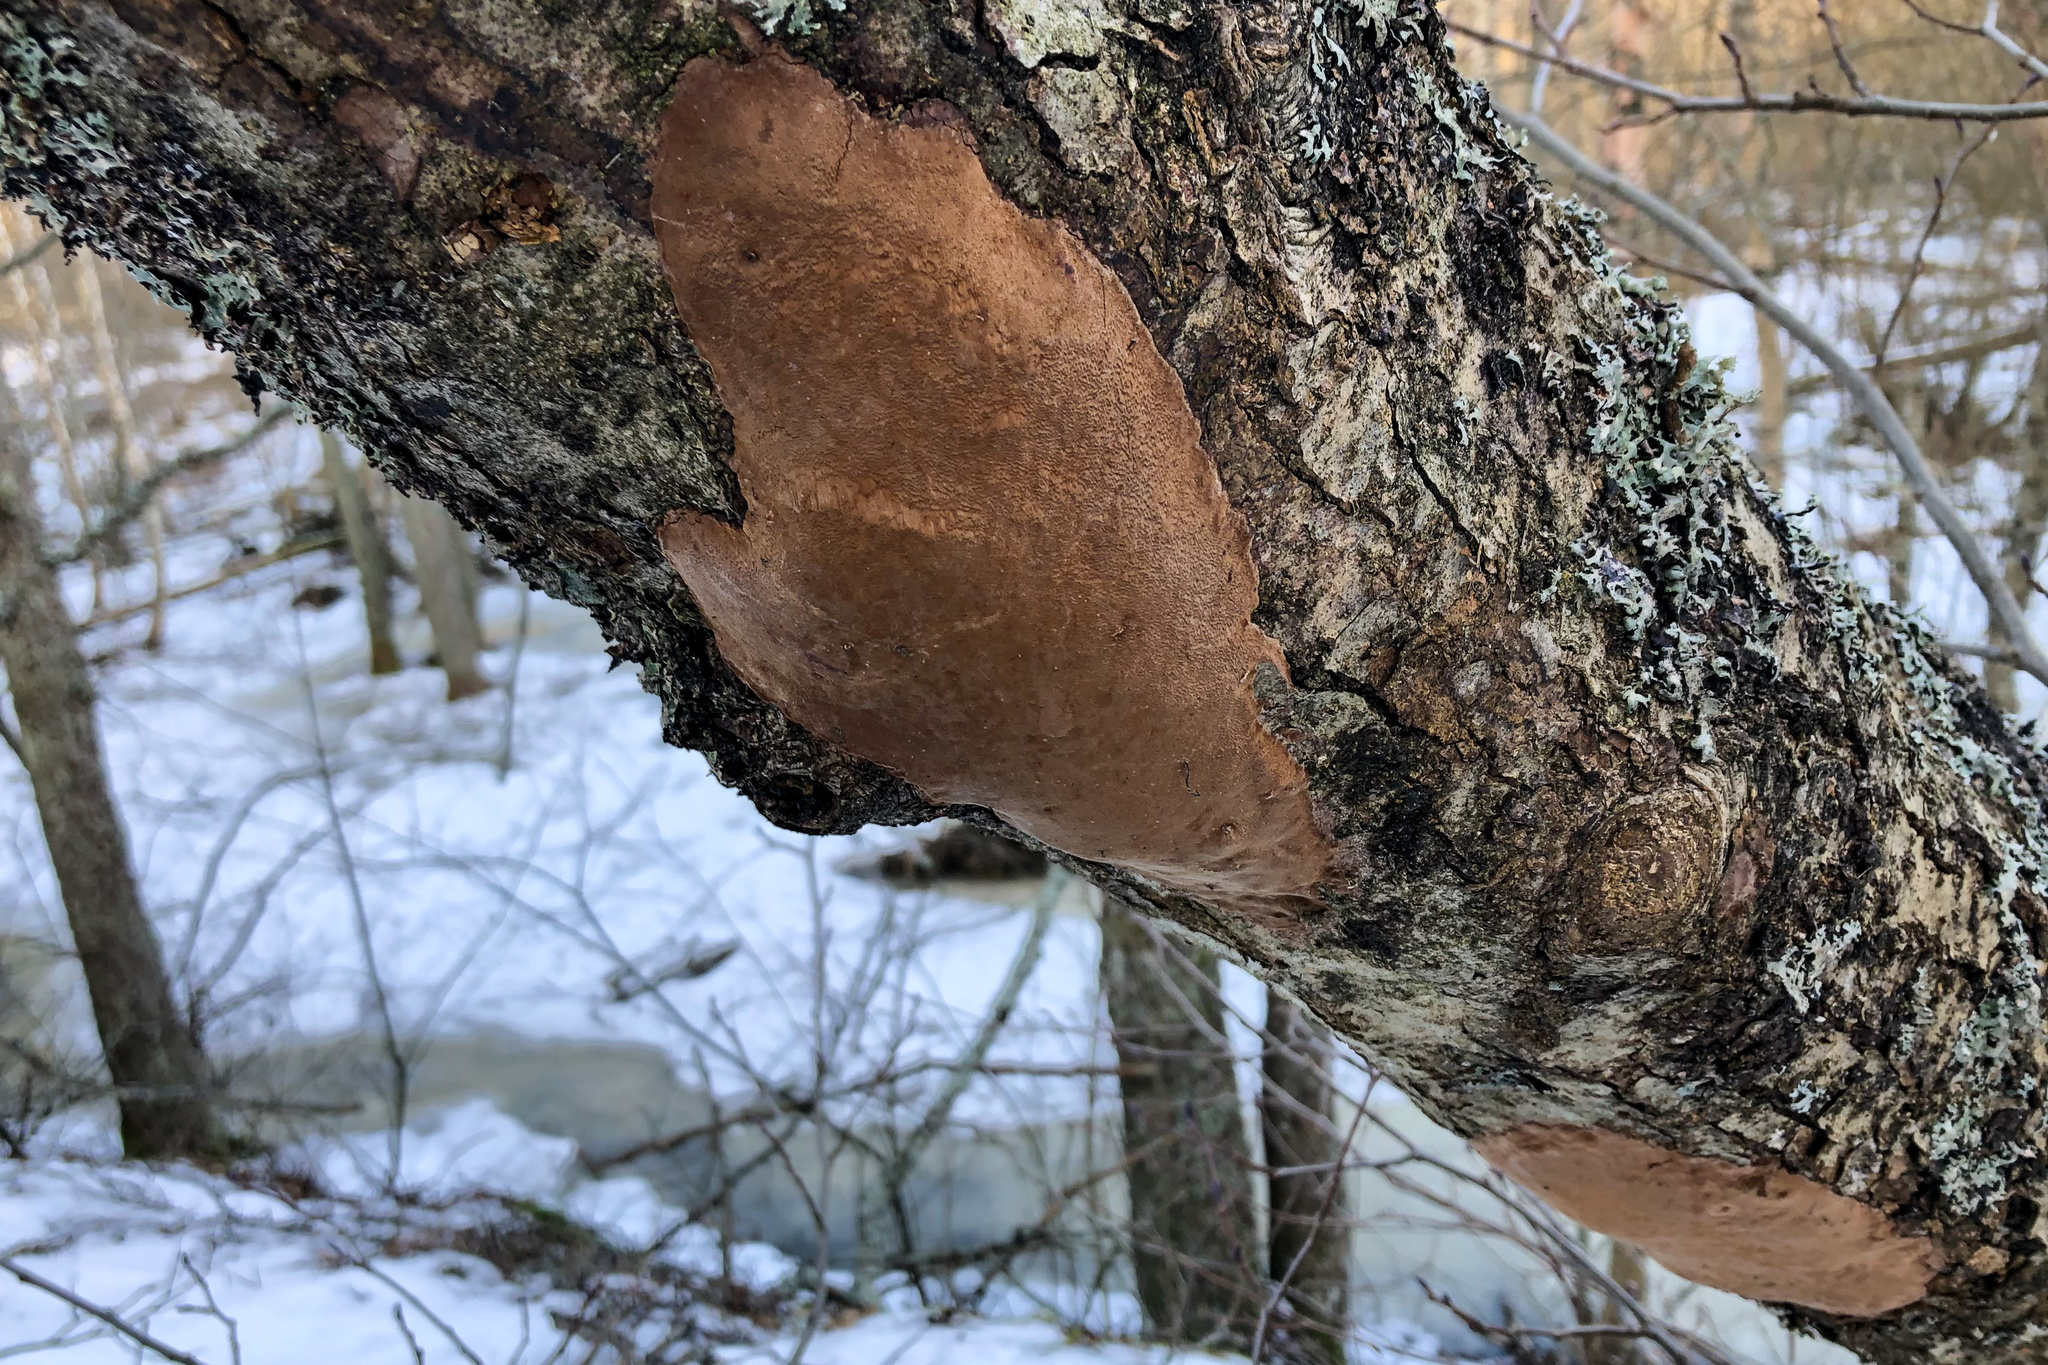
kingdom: Fungi
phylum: Basidiomycota
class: Agaricomycetes
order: Hymenochaetales
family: Hymenochaetaceae
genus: Fomitiporia
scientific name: Fomitiporia punctata
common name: Elbowpatch crust
